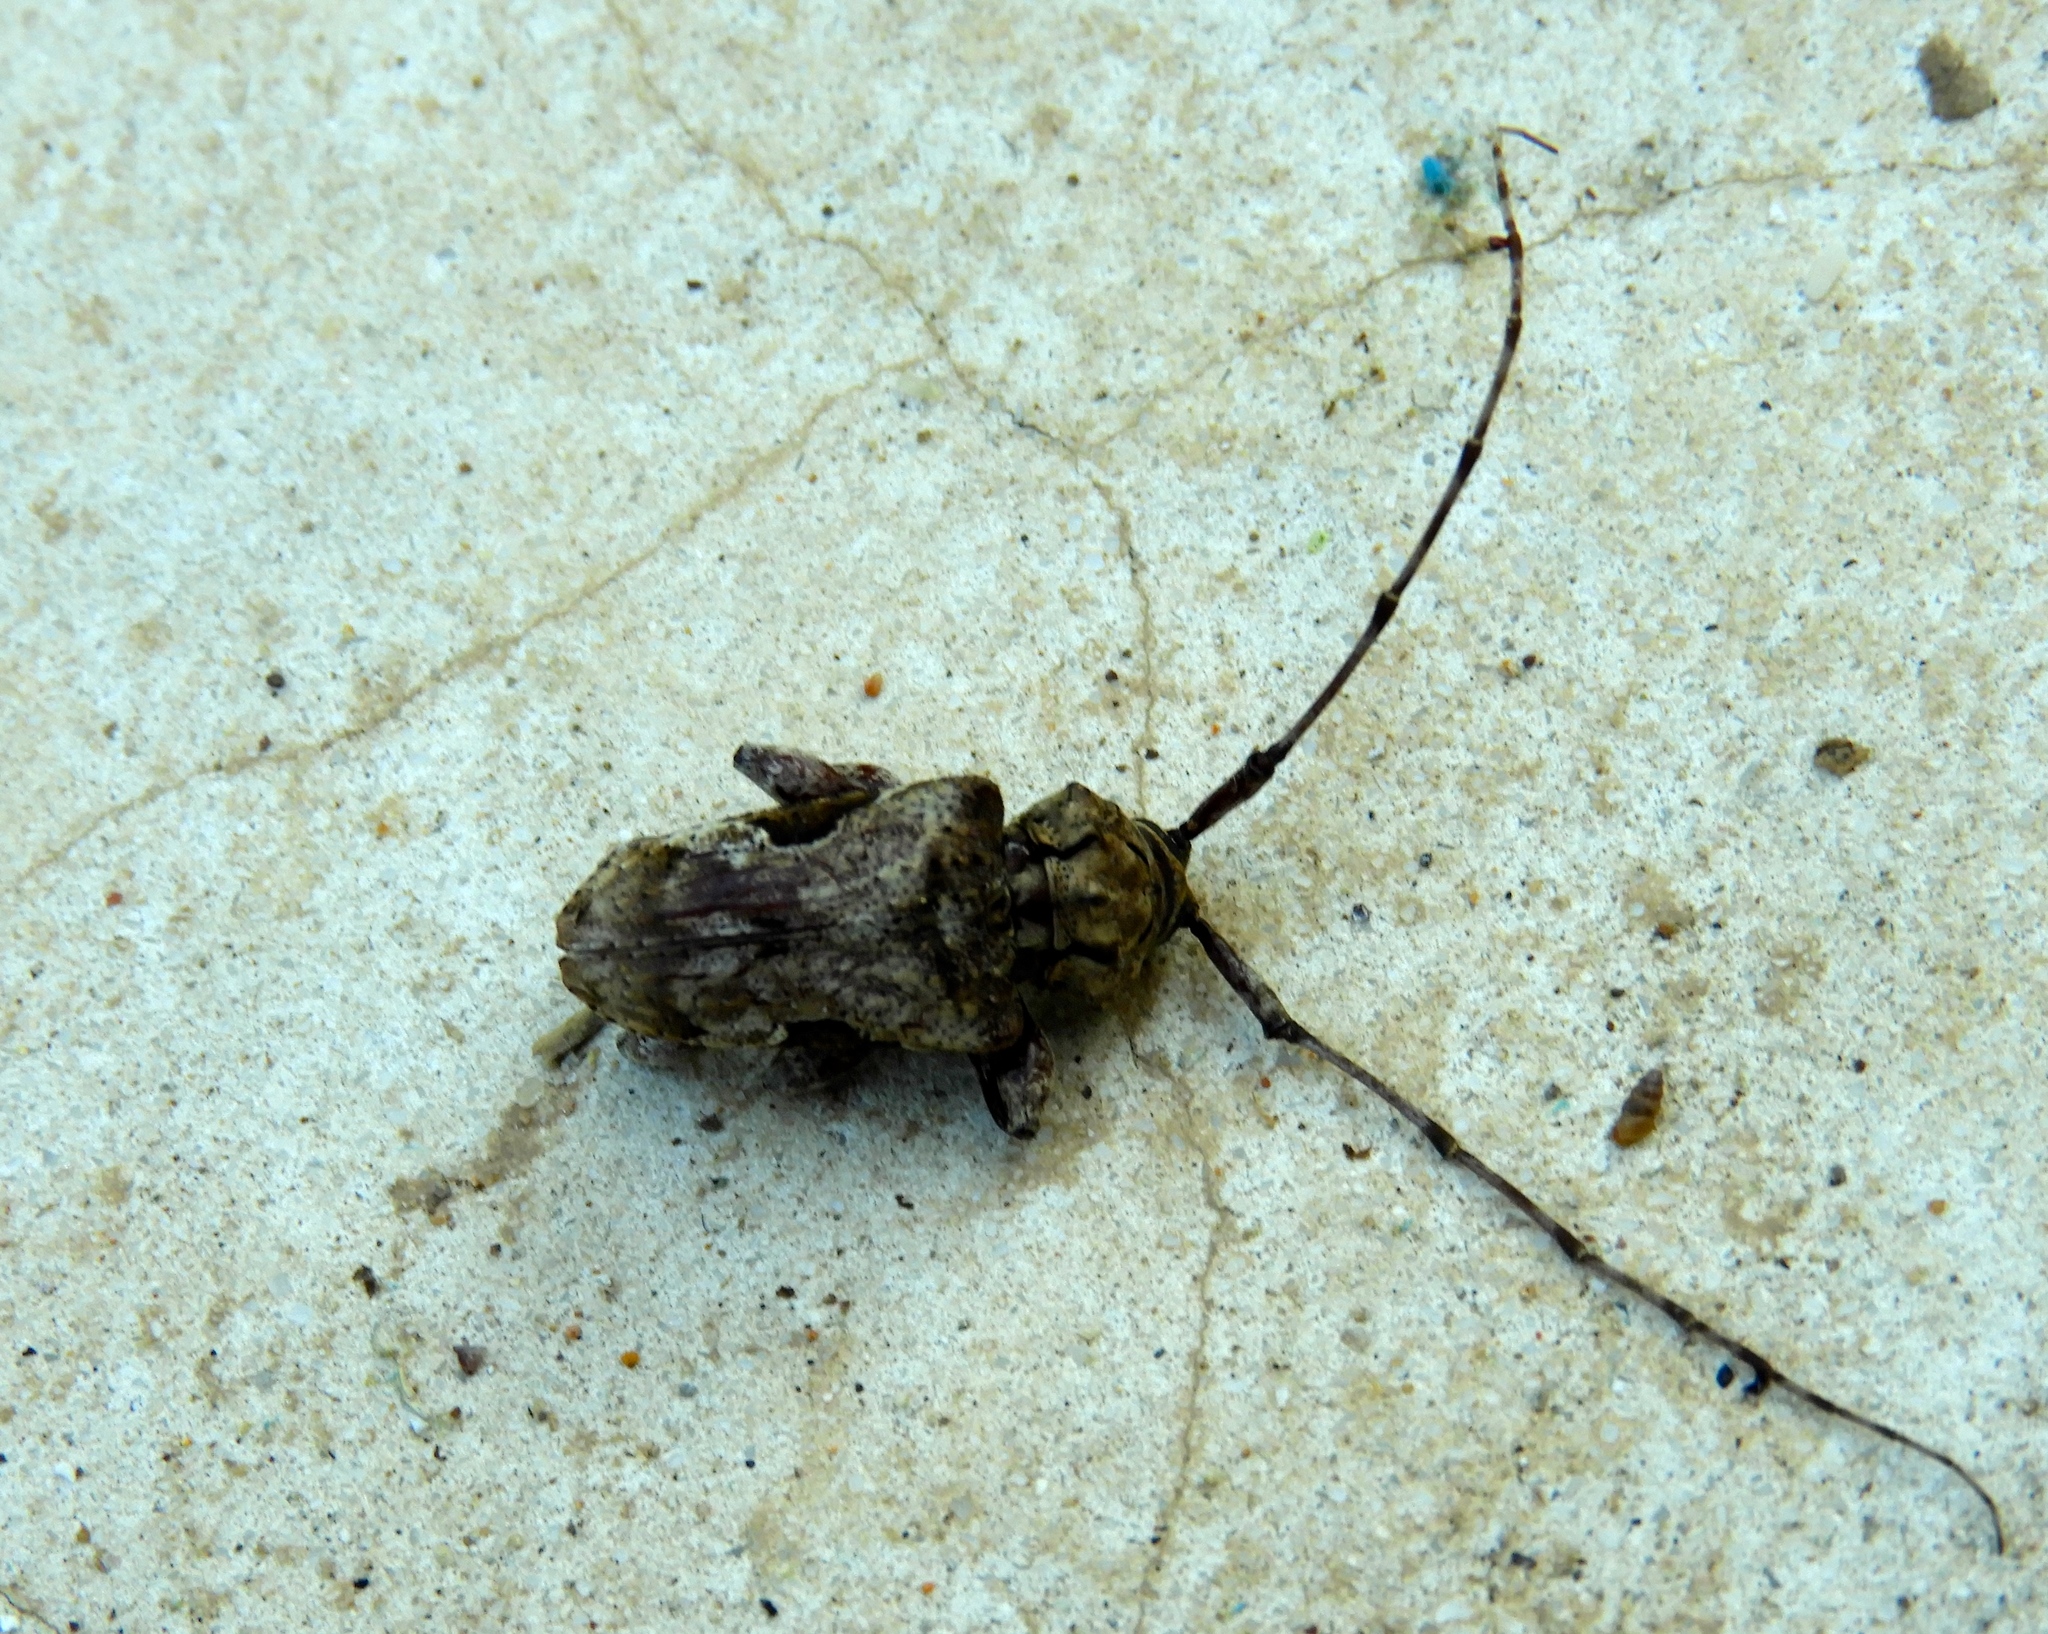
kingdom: Animalia
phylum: Arthropoda
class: Insecta
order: Coleoptera
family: Cerambycidae
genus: Lagocheirus
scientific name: Lagocheirus procerus
